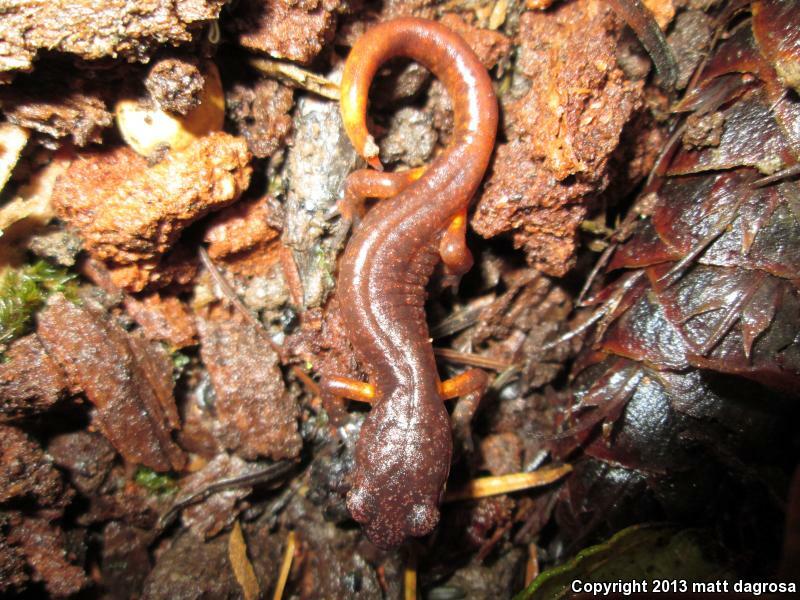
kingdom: Animalia
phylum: Chordata
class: Amphibia
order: Caudata
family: Plethodontidae
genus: Ensatina
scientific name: Ensatina eschscholtzii
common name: Ensatina
